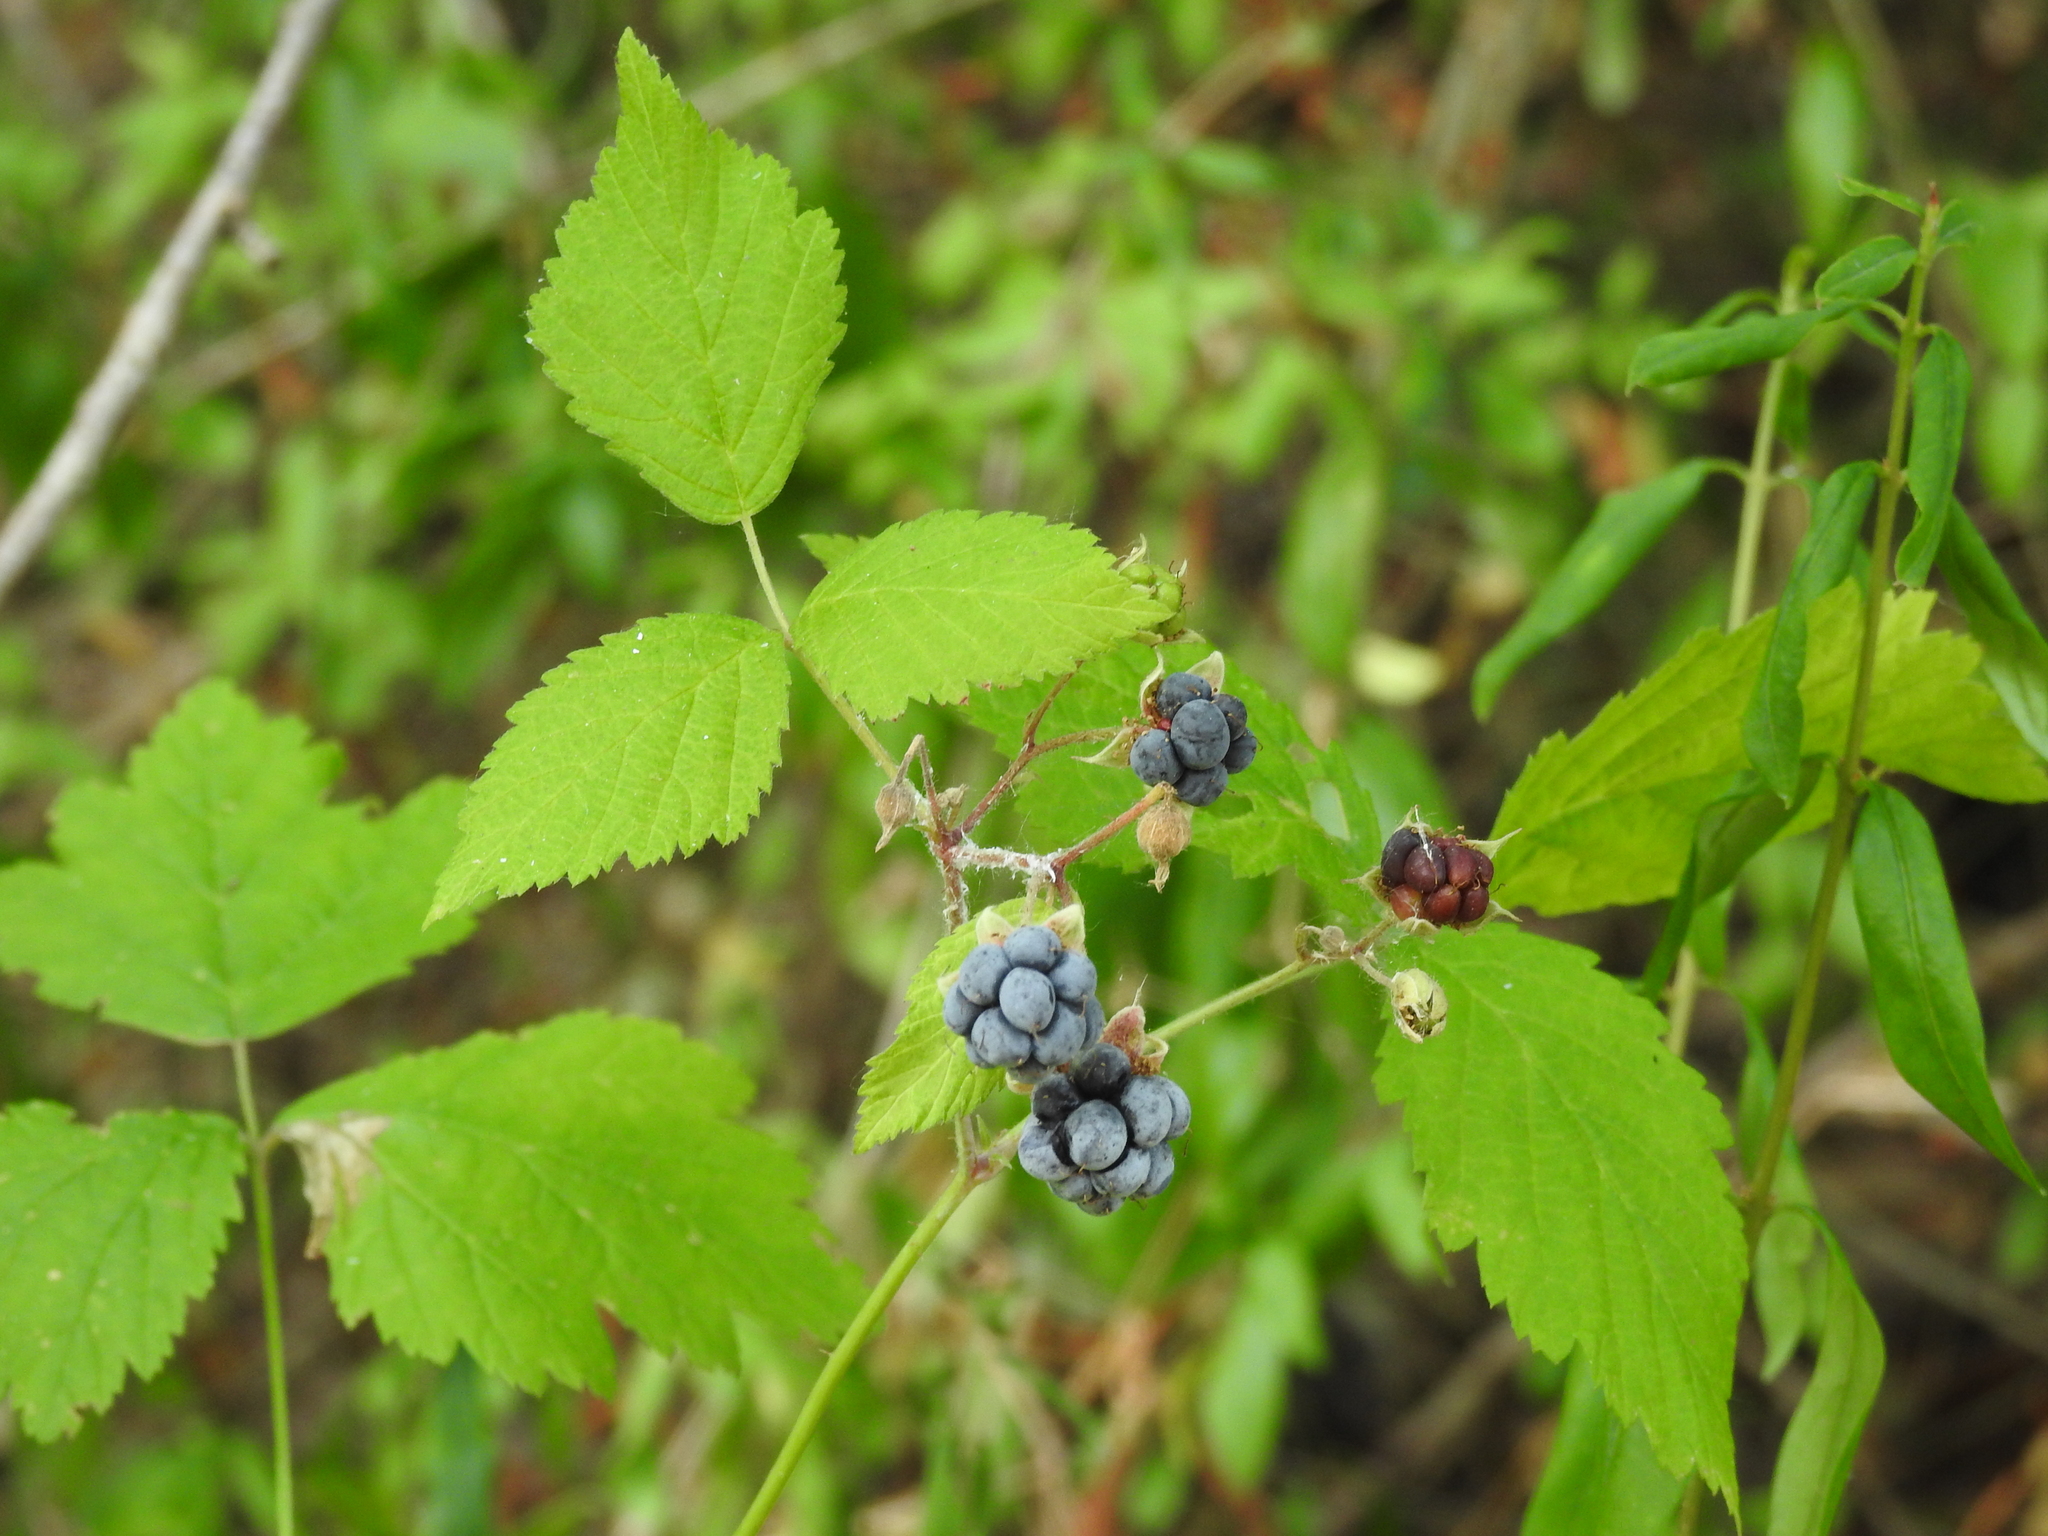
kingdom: Plantae
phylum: Tracheophyta
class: Magnoliopsida
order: Rosales
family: Rosaceae
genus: Rubus
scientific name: Rubus caesius
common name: Dewberry
